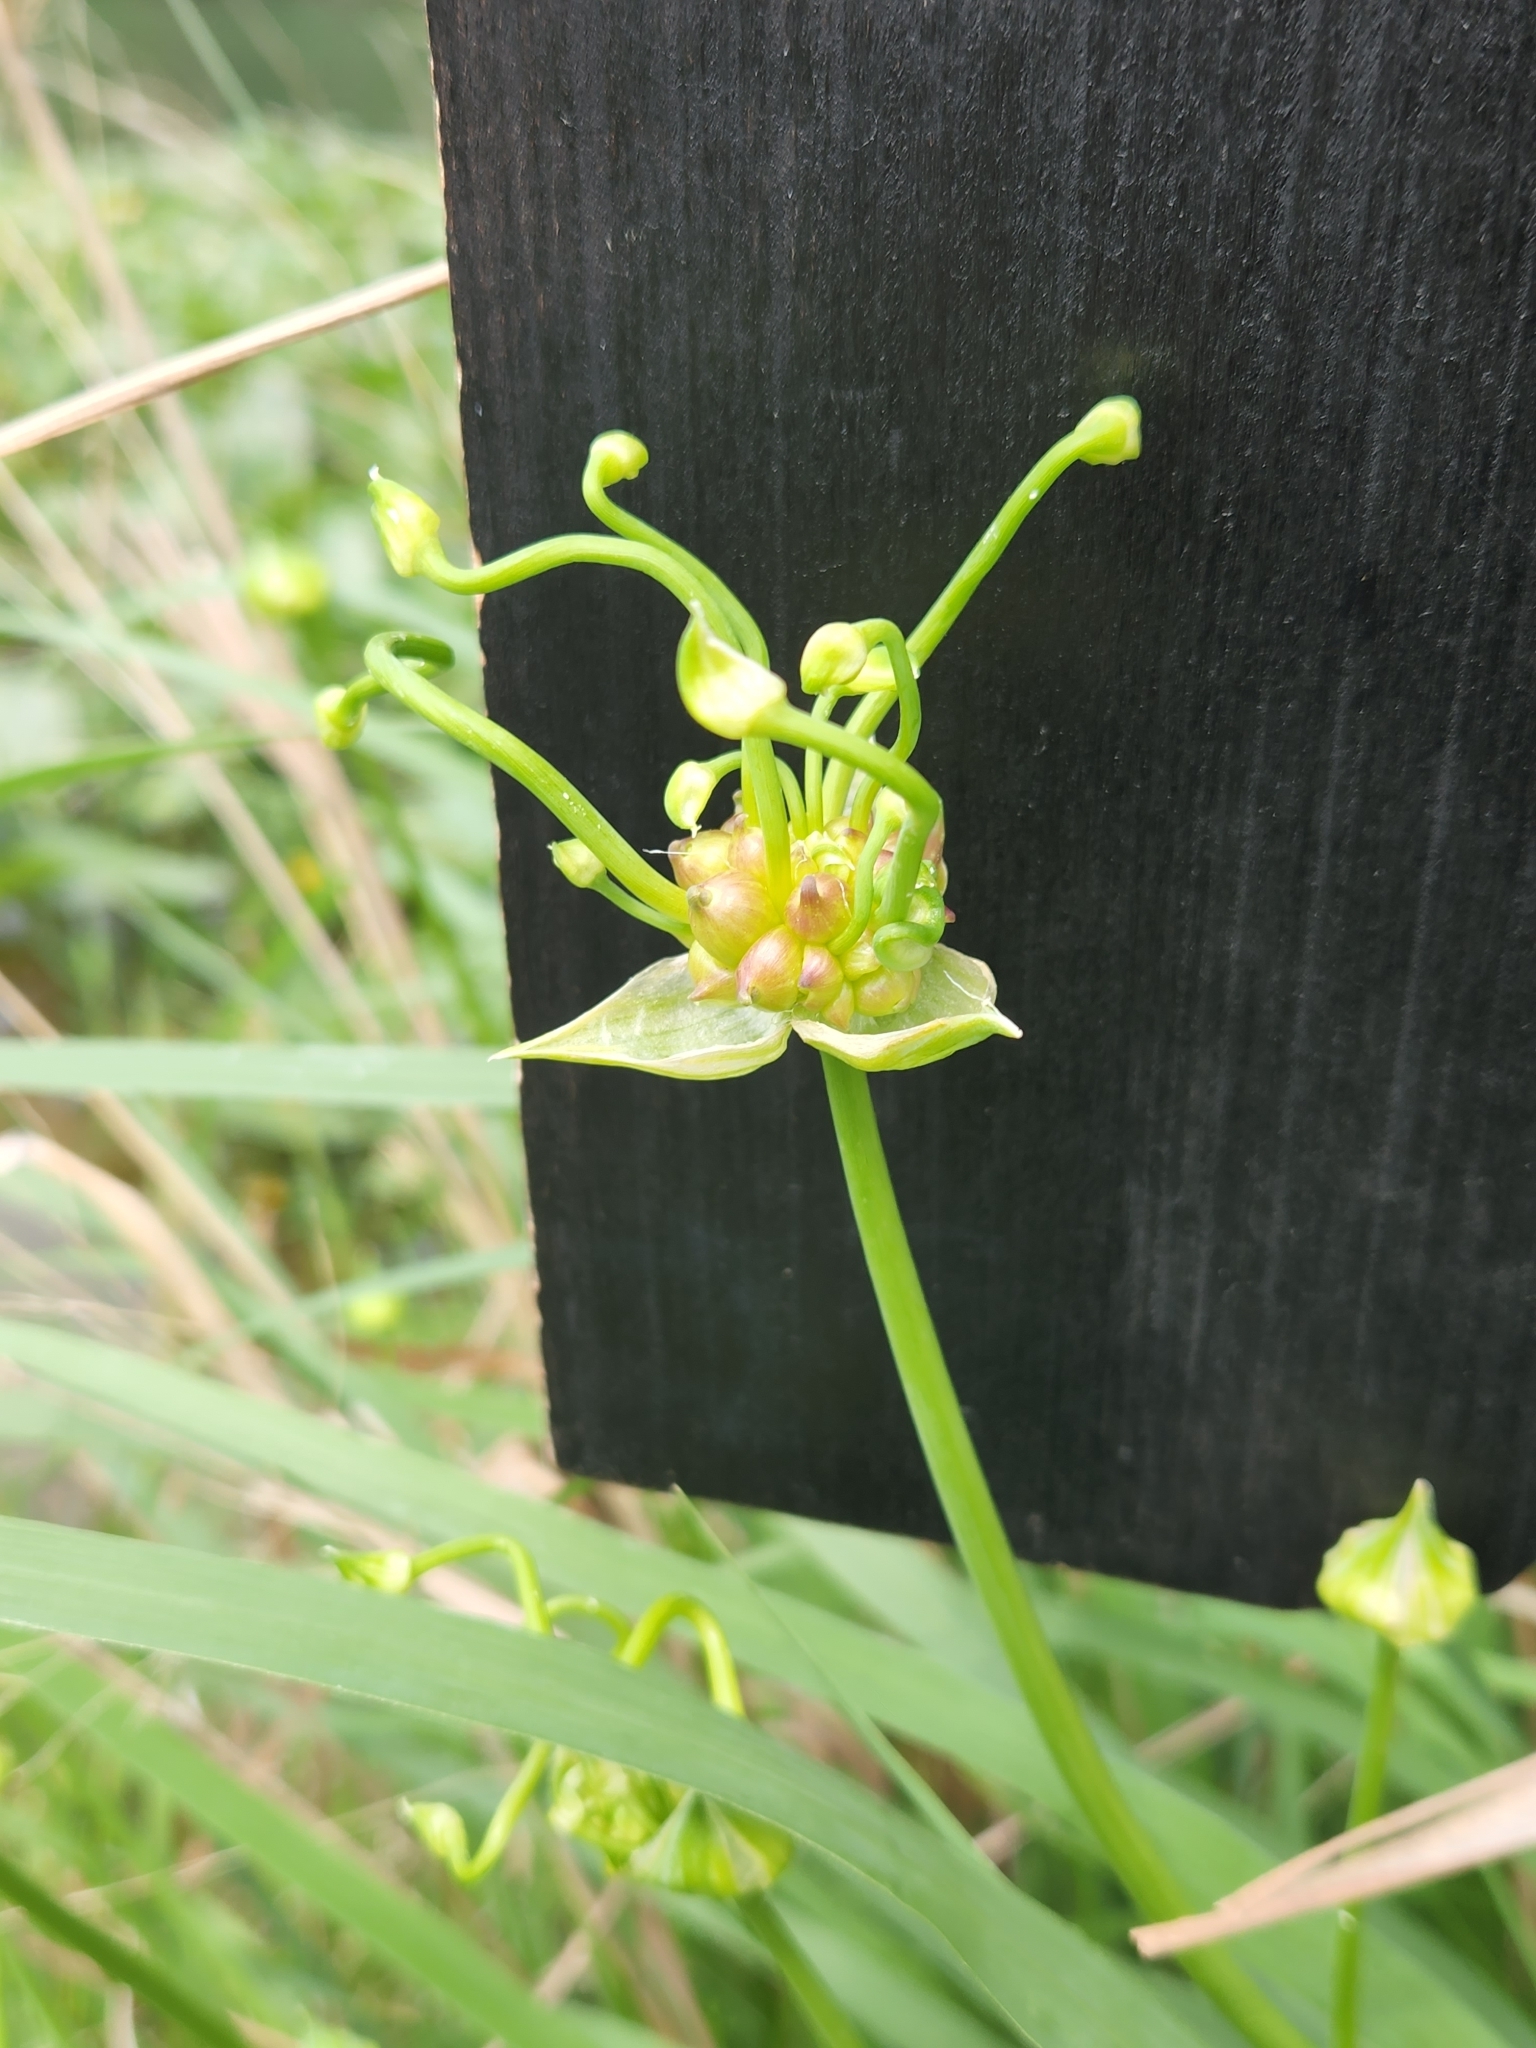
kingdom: Plantae
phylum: Tracheophyta
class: Liliopsida
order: Asparagales
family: Amaryllidaceae
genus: Allium
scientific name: Allium canadense
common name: Meadow garlic
